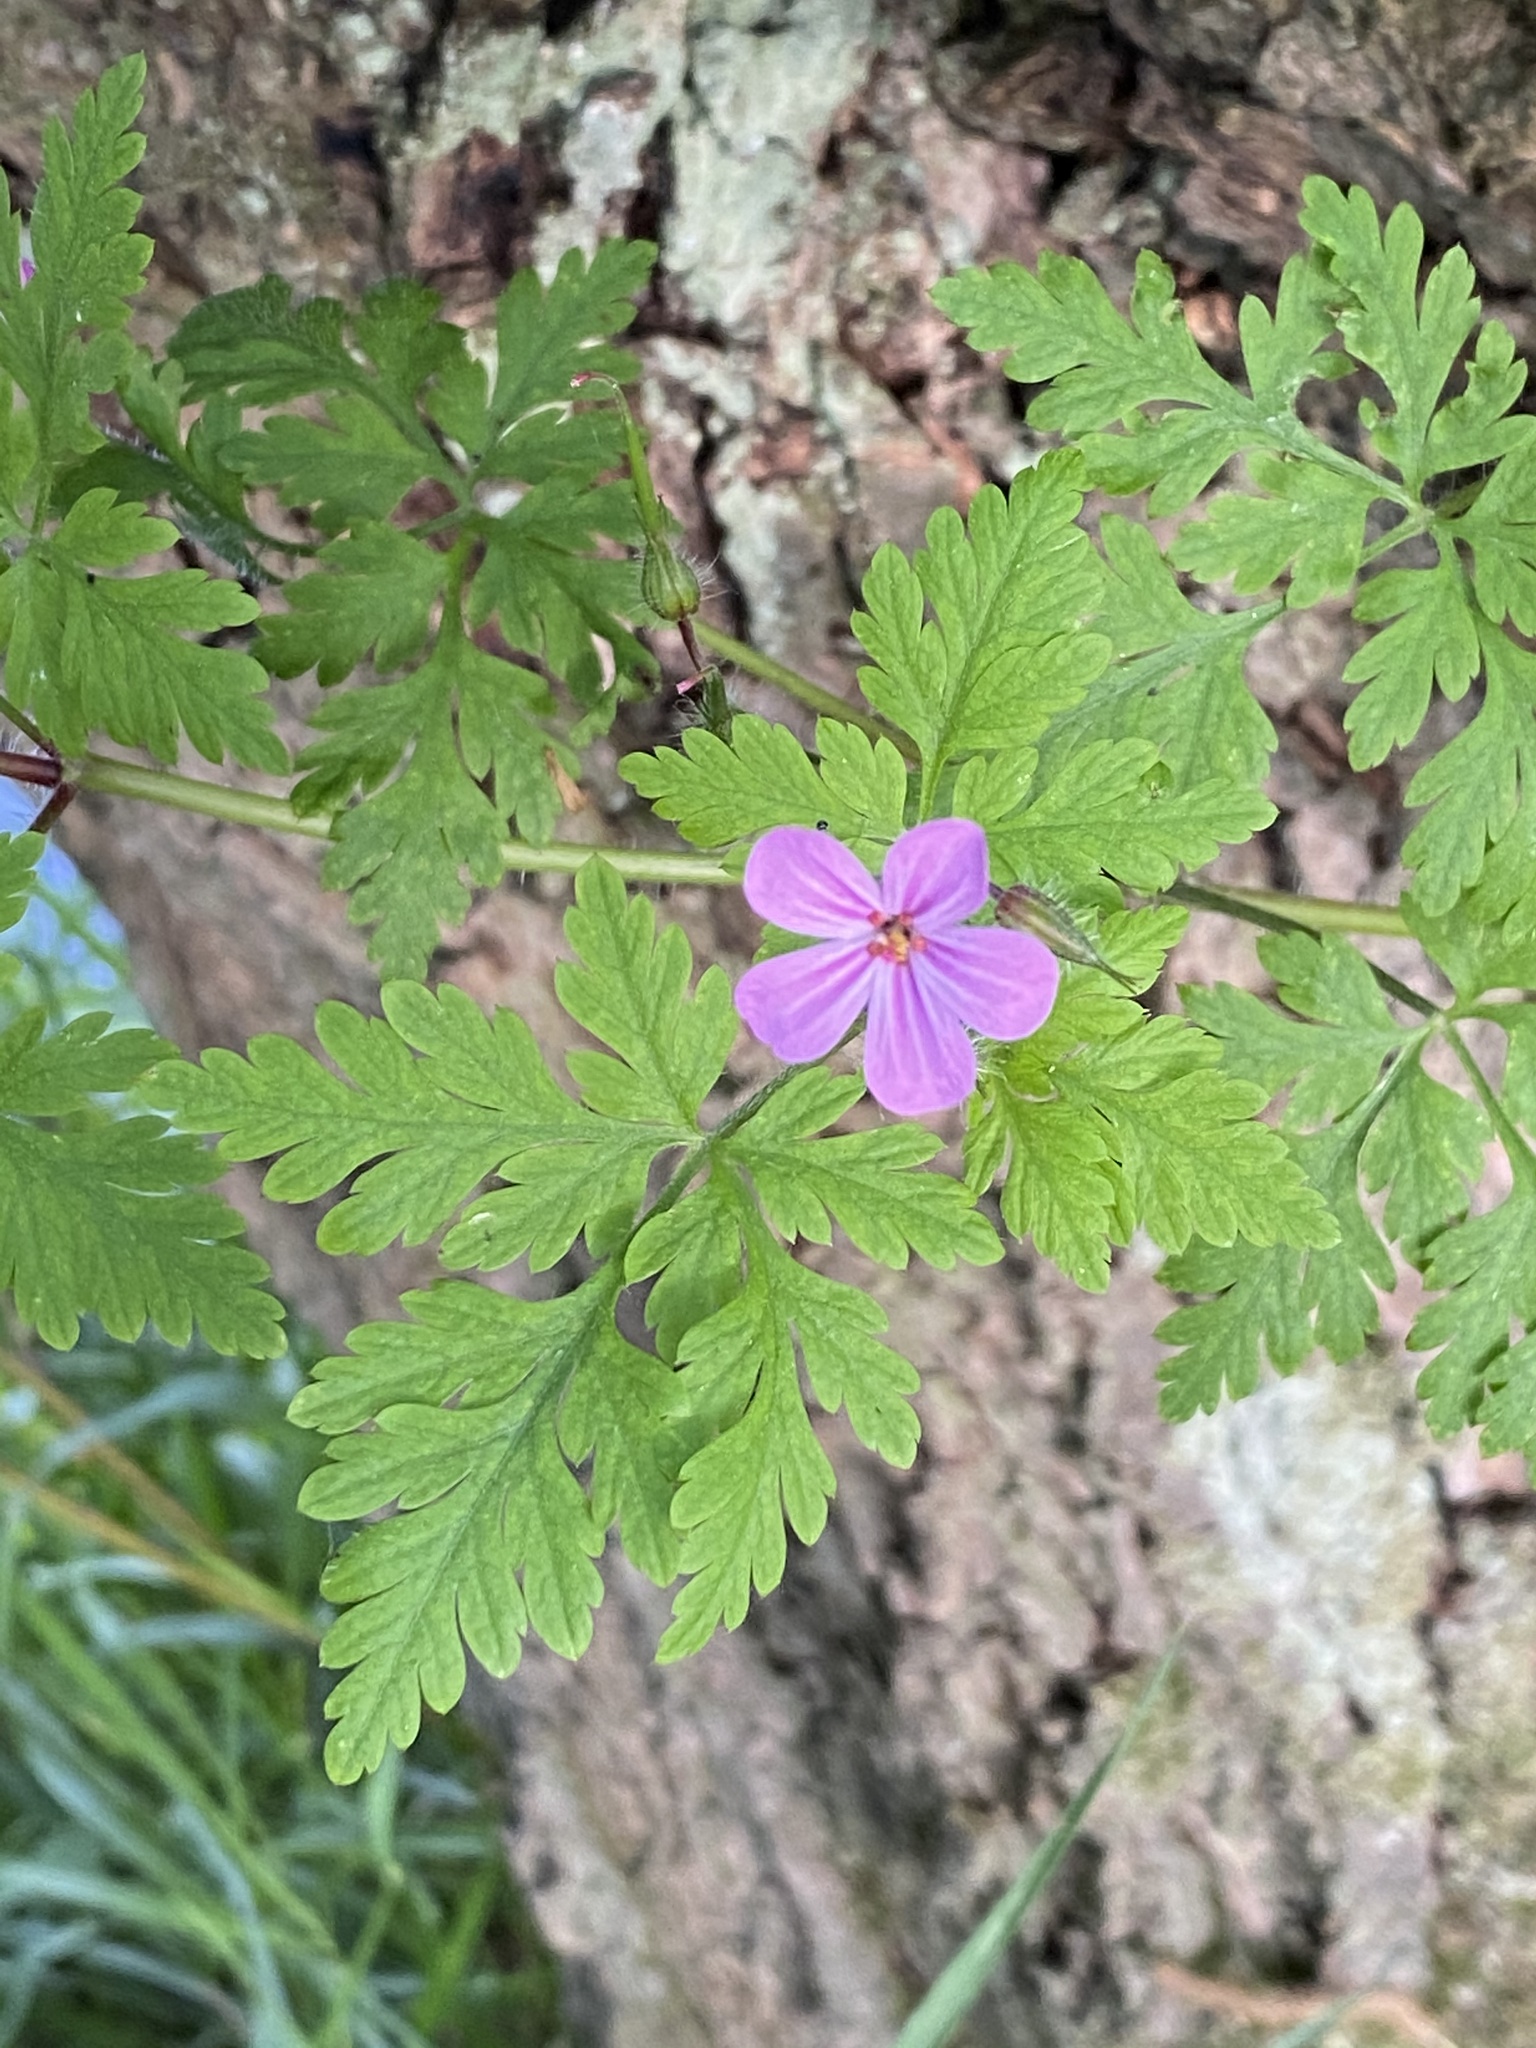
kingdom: Plantae
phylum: Tracheophyta
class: Magnoliopsida
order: Geraniales
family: Geraniaceae
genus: Geranium
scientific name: Geranium robertianum
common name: Herb-robert
